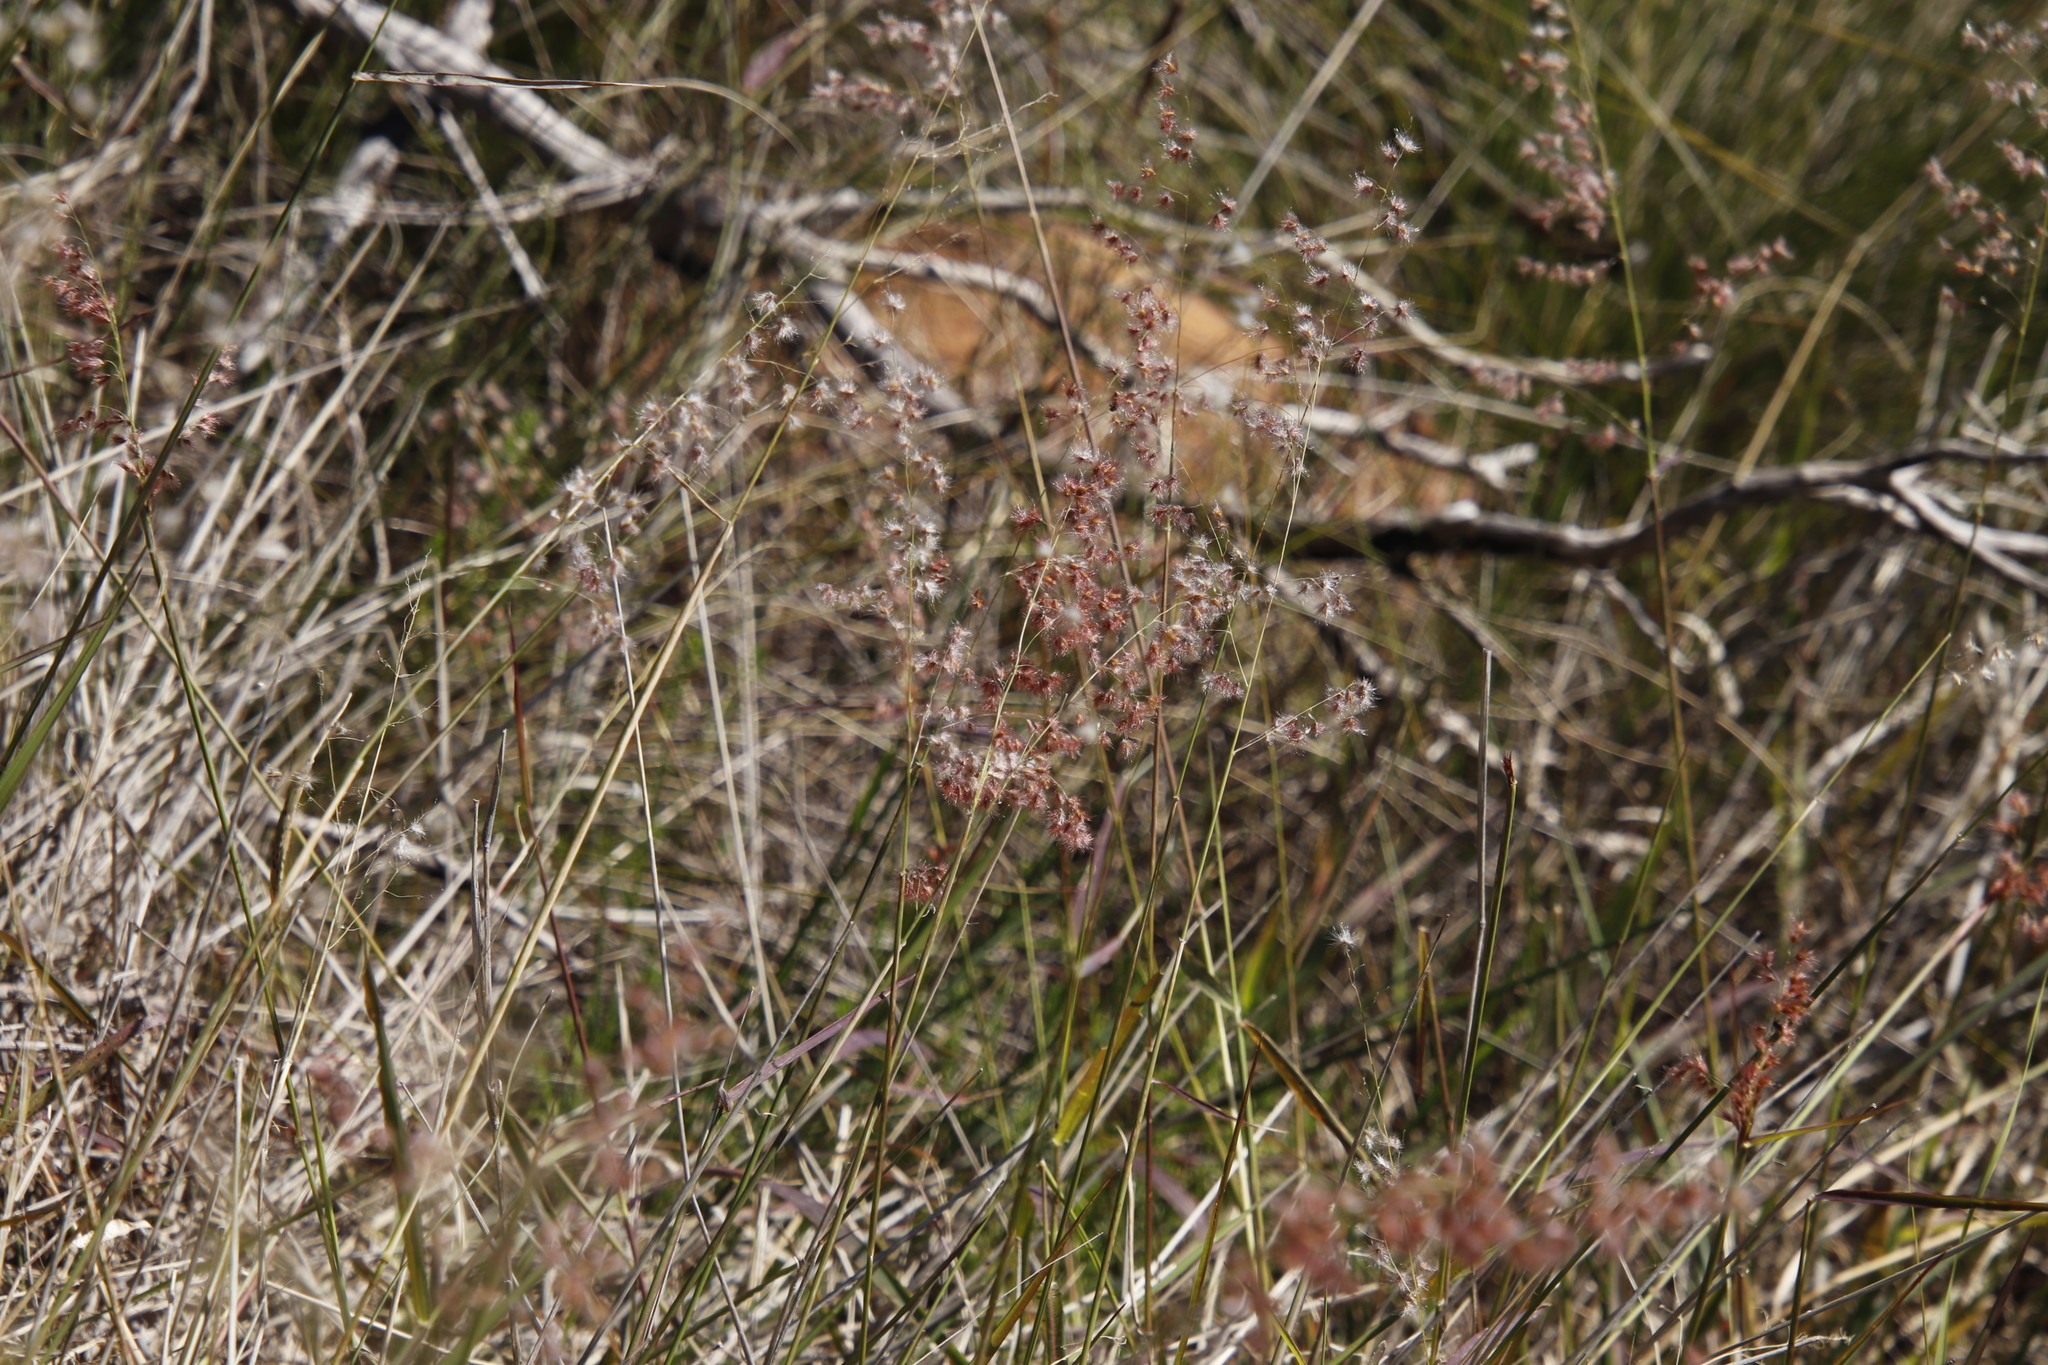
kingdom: Plantae
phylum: Tracheophyta
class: Liliopsida
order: Poales
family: Poaceae
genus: Melinis
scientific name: Melinis repens
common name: Rose natal grass
